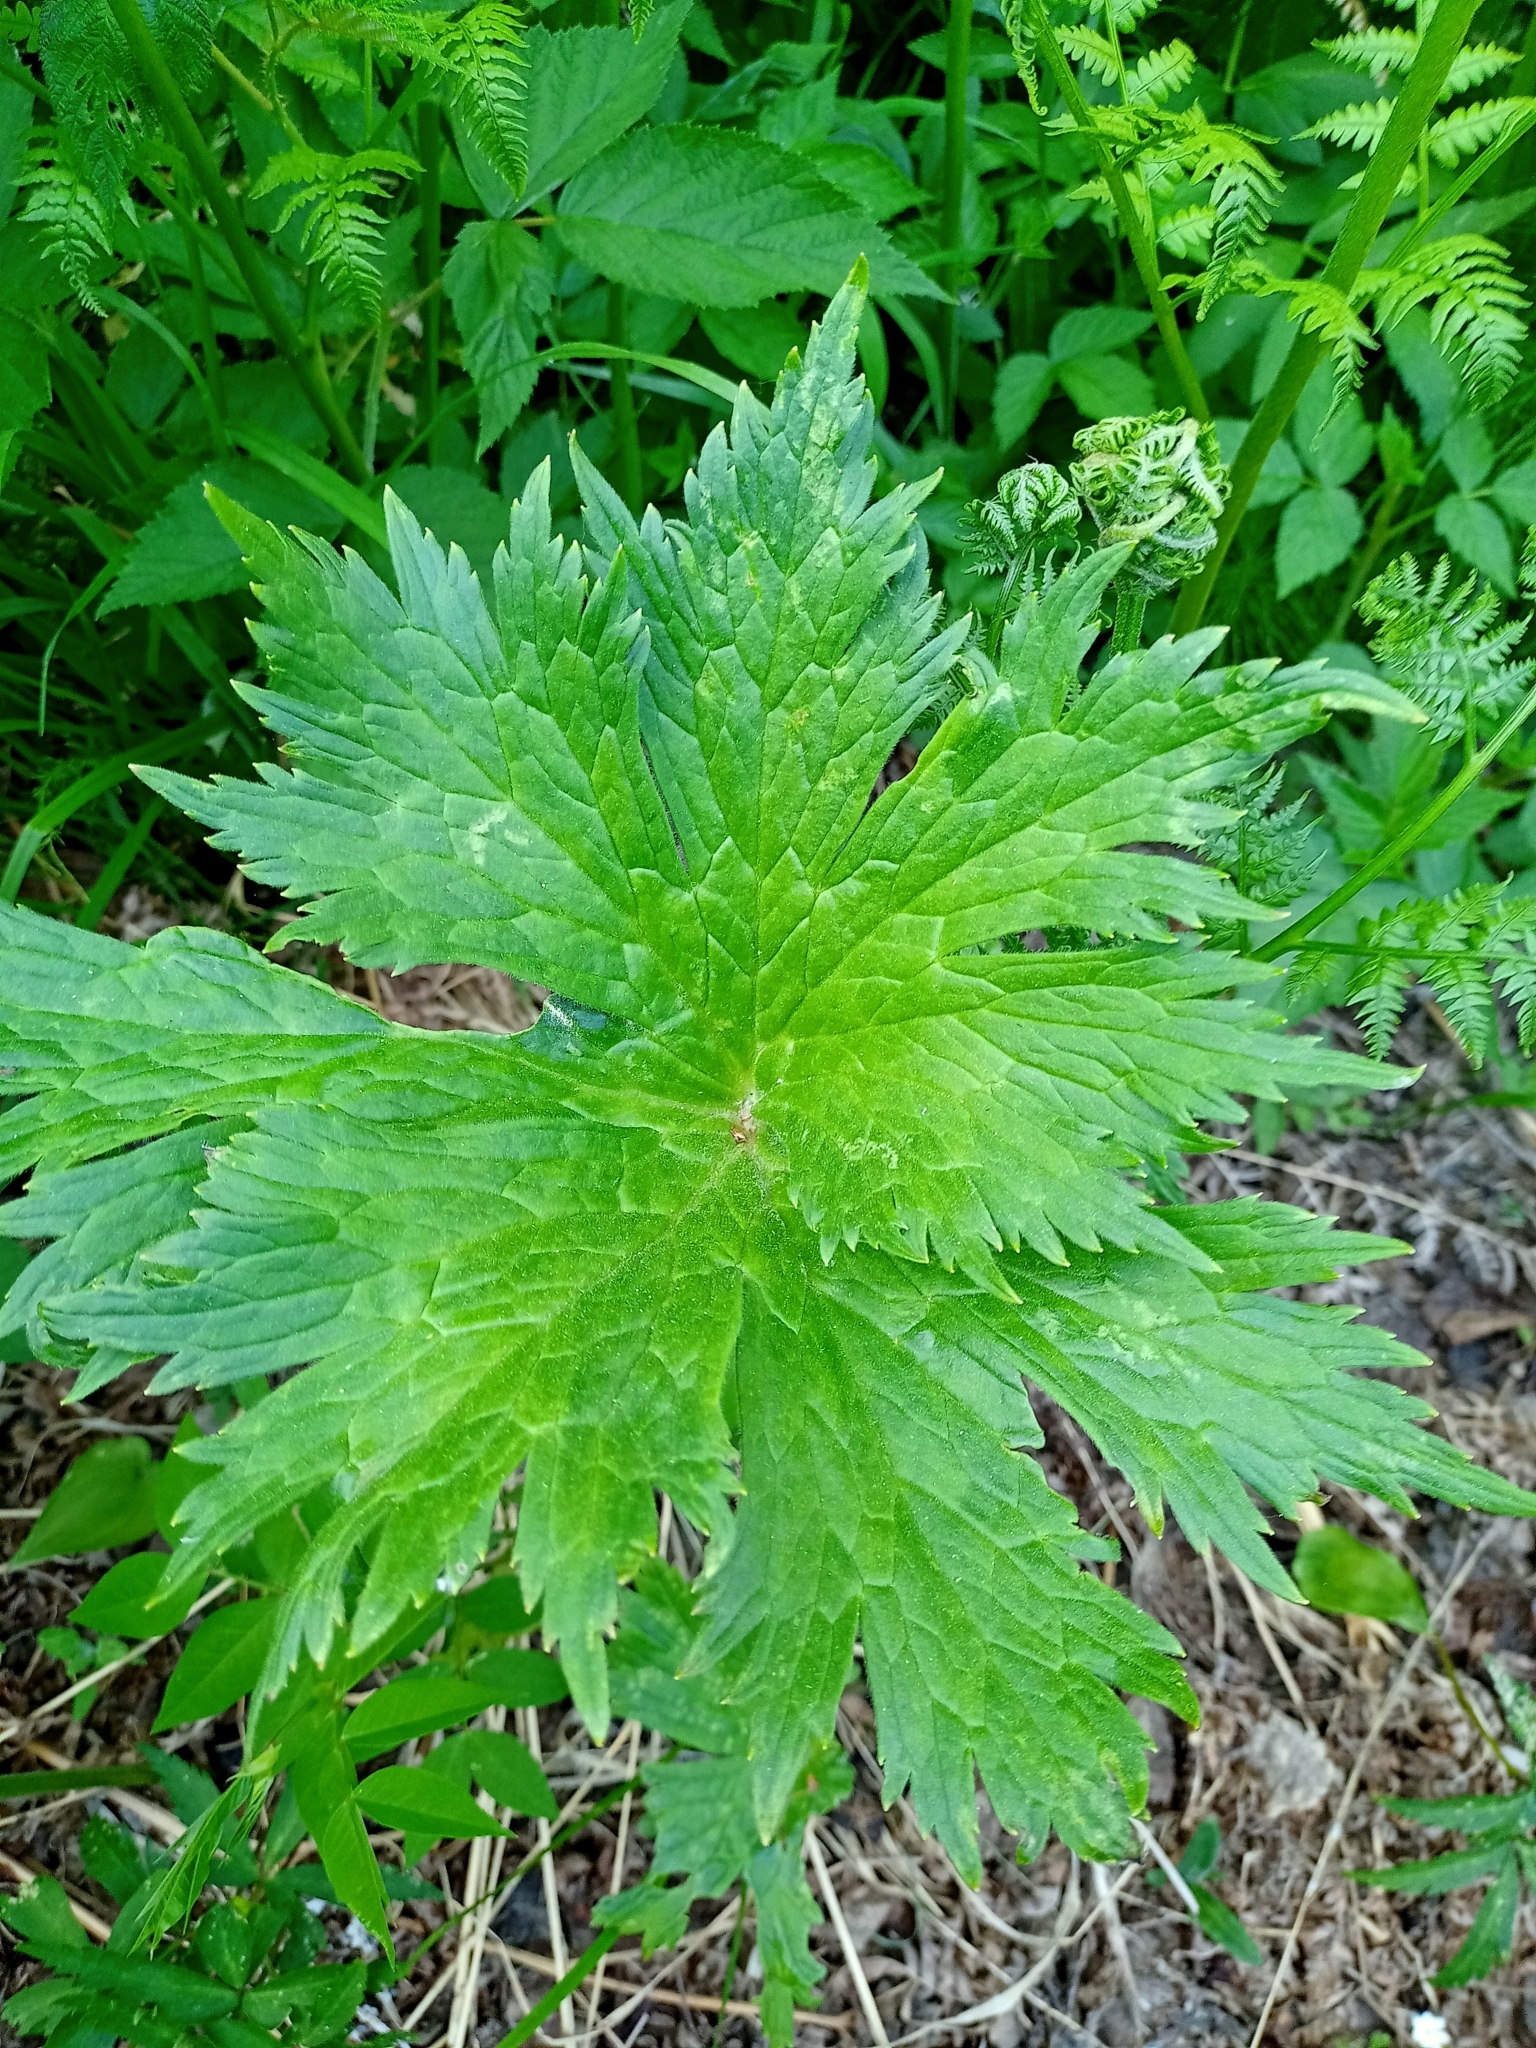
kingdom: Plantae
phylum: Tracheophyta
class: Magnoliopsida
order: Ranunculales
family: Ranunculaceae
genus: Aconitum
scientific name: Aconitum septentrionale
